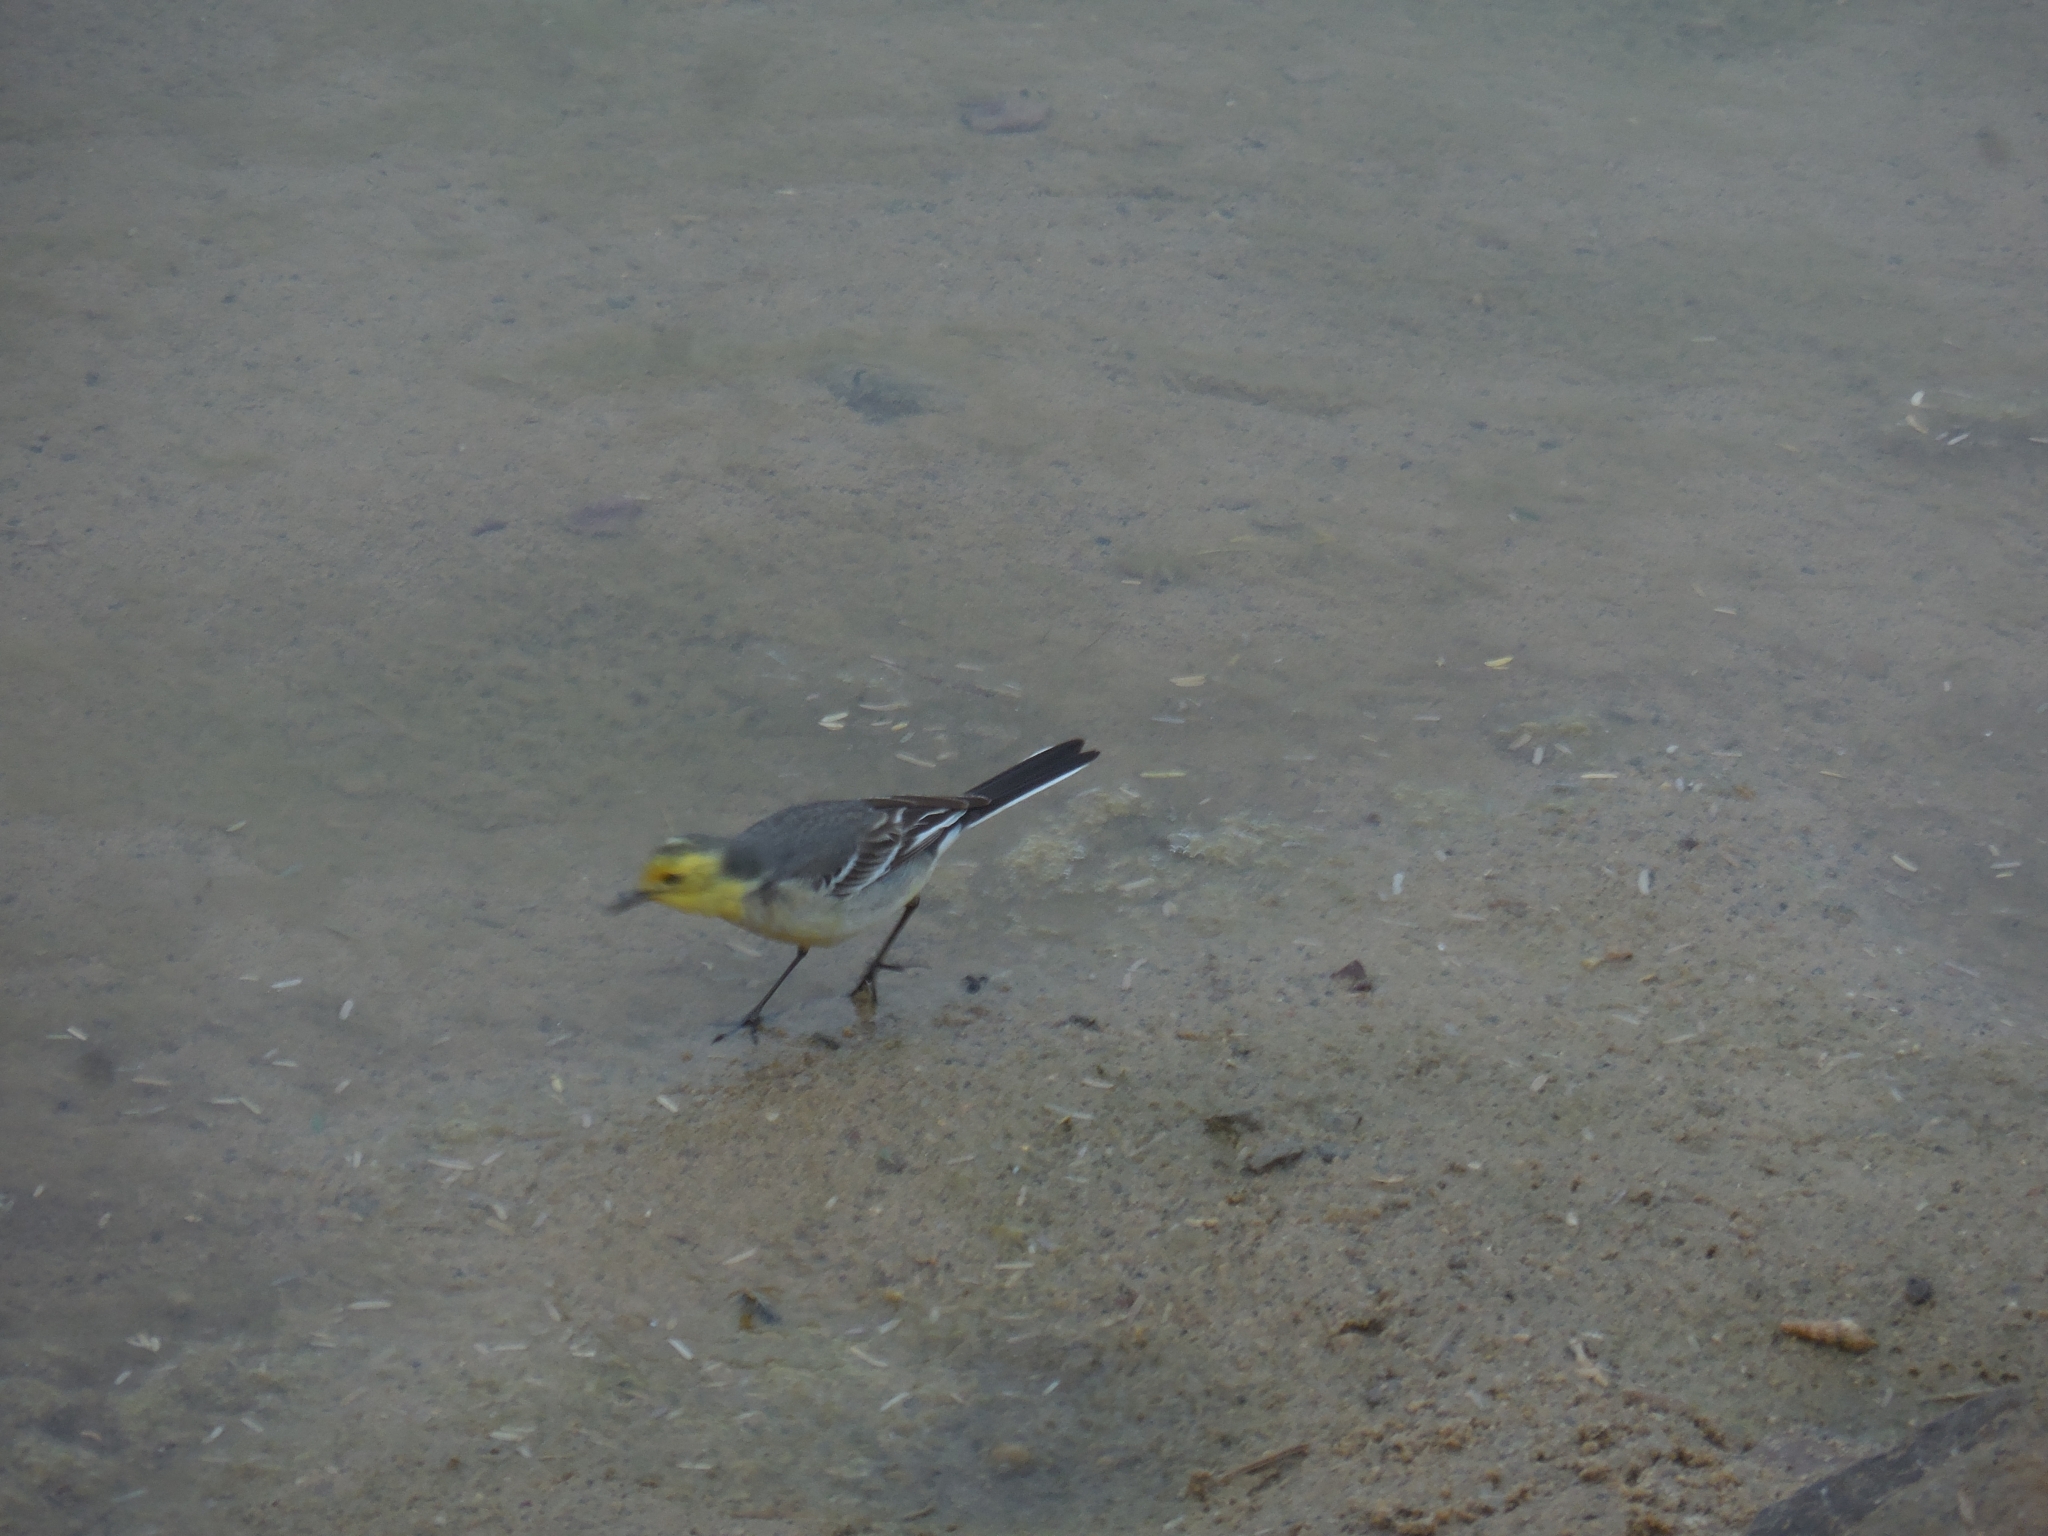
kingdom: Animalia
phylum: Chordata
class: Aves
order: Passeriformes
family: Motacillidae
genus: Motacilla
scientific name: Motacilla citreola
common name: Citrine wagtail
